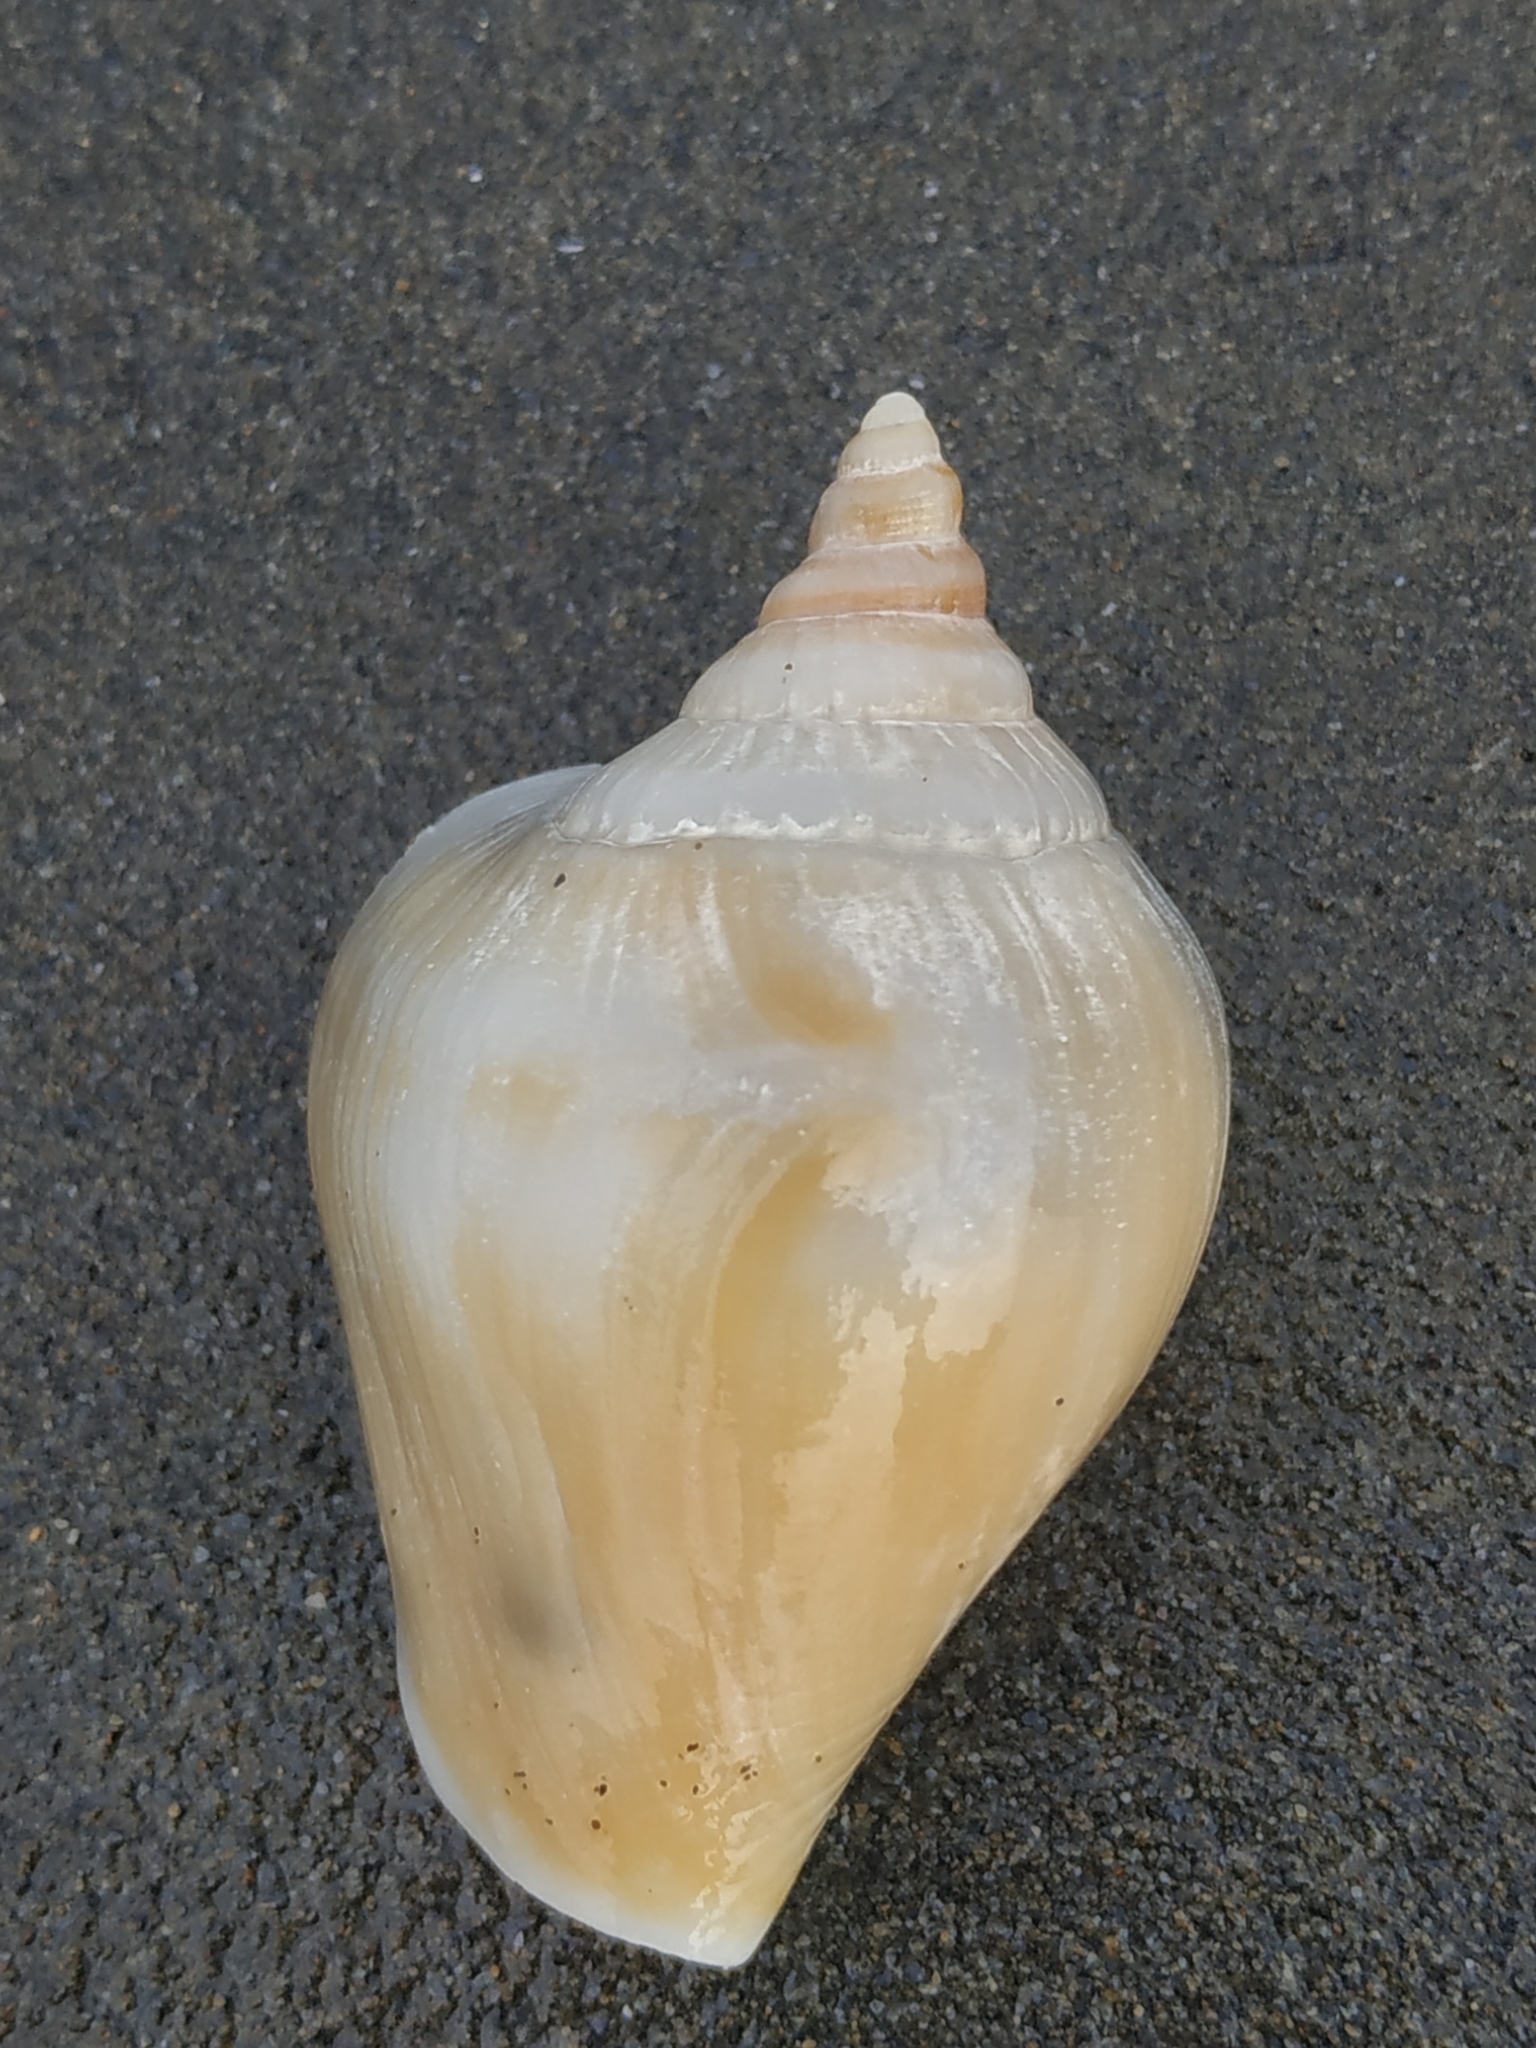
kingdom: Animalia
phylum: Mollusca
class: Gastropoda
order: Littorinimorpha
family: Strombidae
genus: Laevistrombus
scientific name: Laevistrombus canarium
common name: Dog conch
